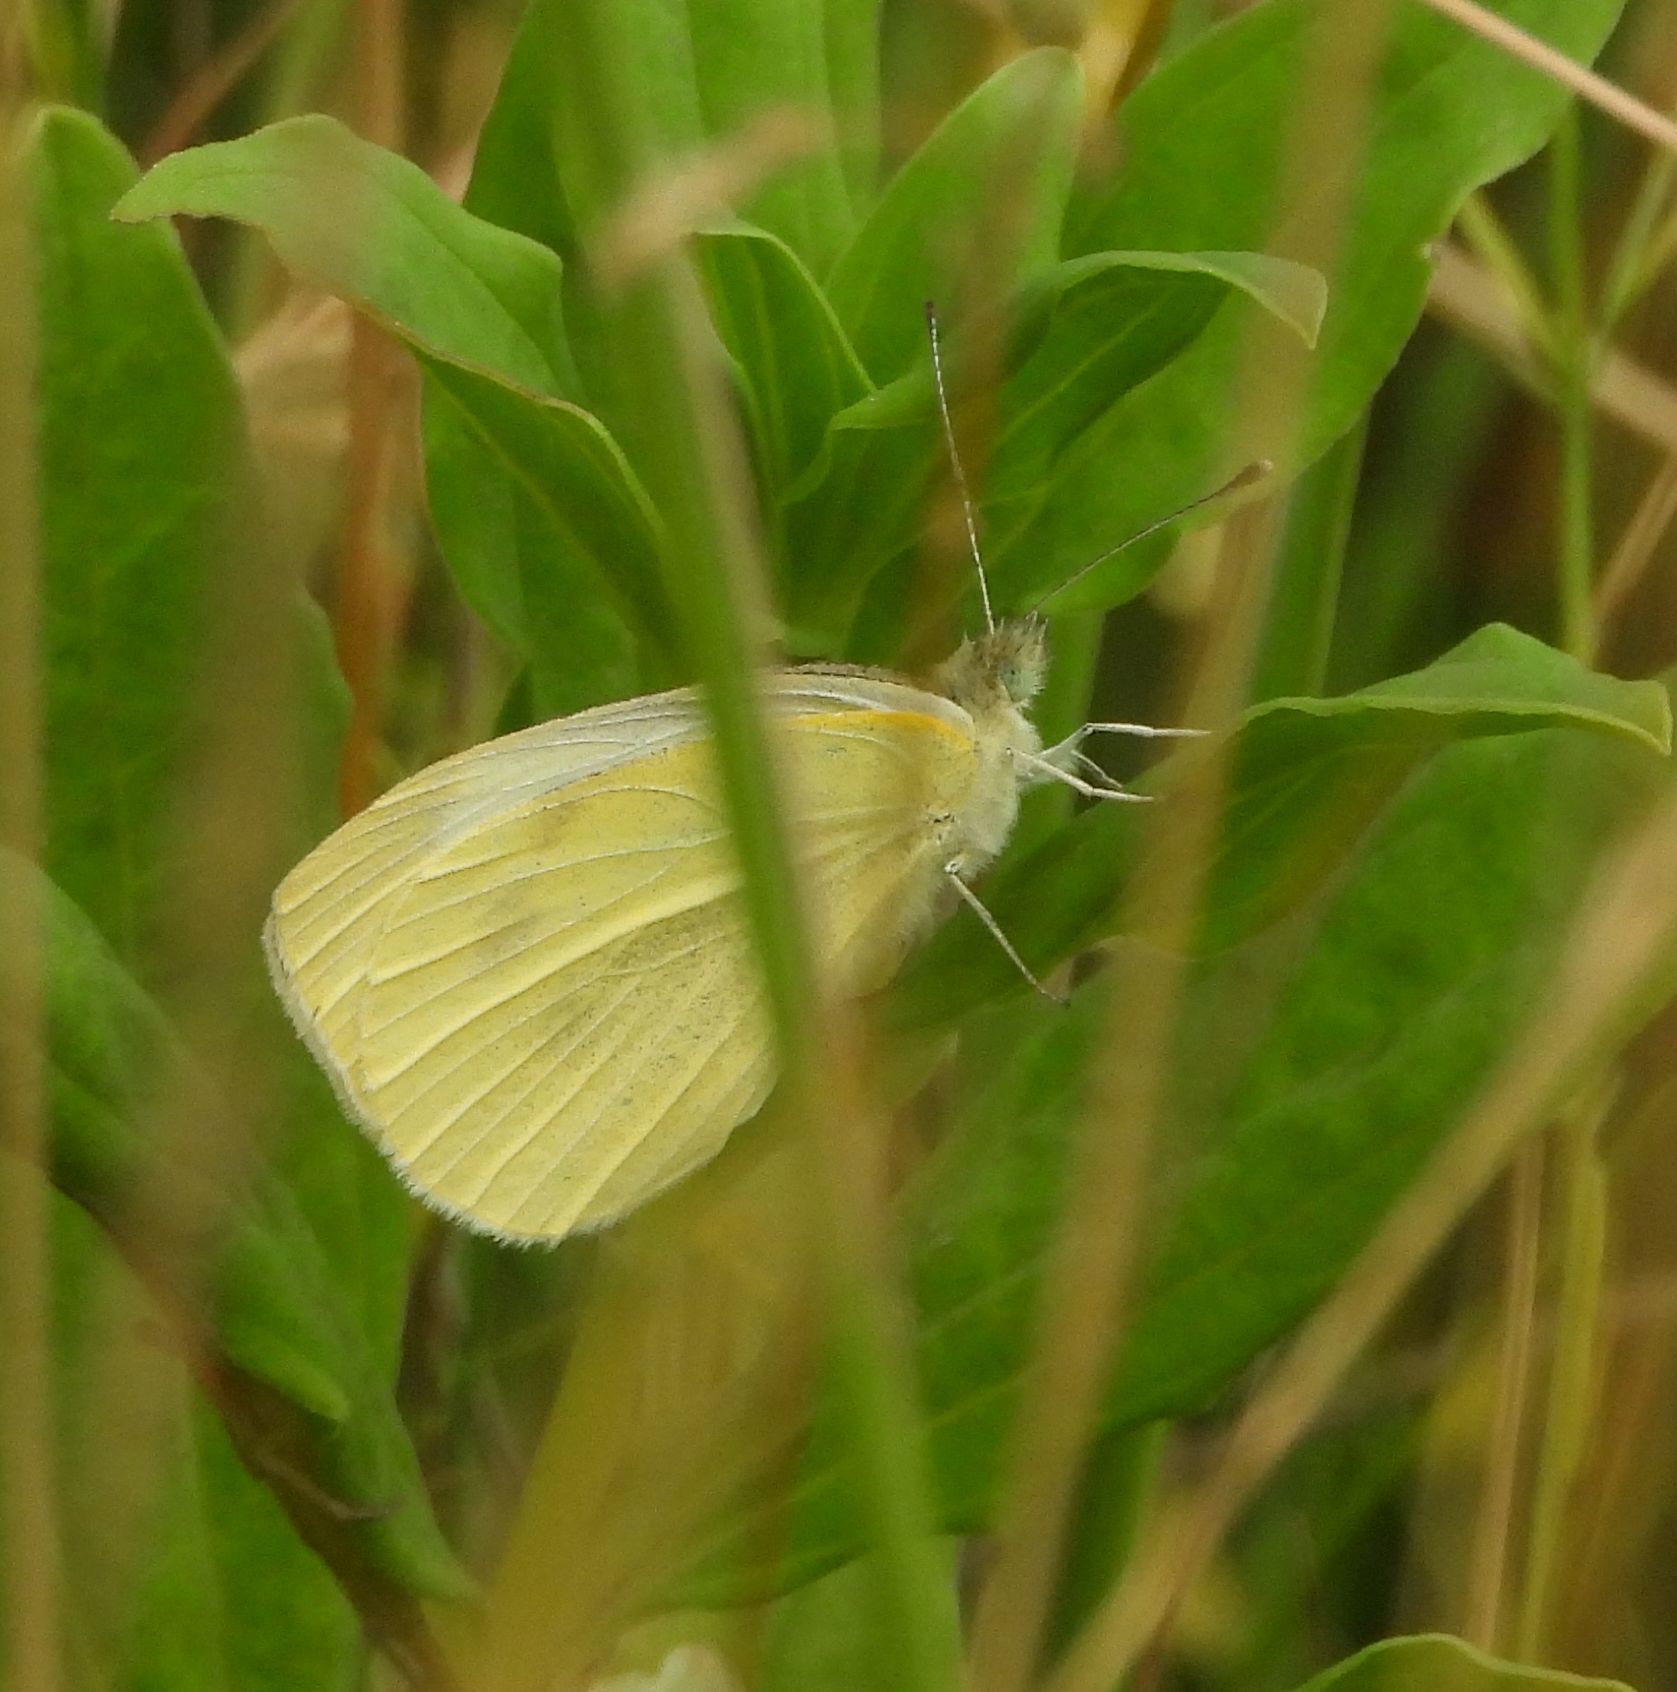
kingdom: Animalia
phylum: Arthropoda
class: Insecta
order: Lepidoptera
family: Pieridae
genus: Pieris
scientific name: Pieris rapae
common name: Small white
